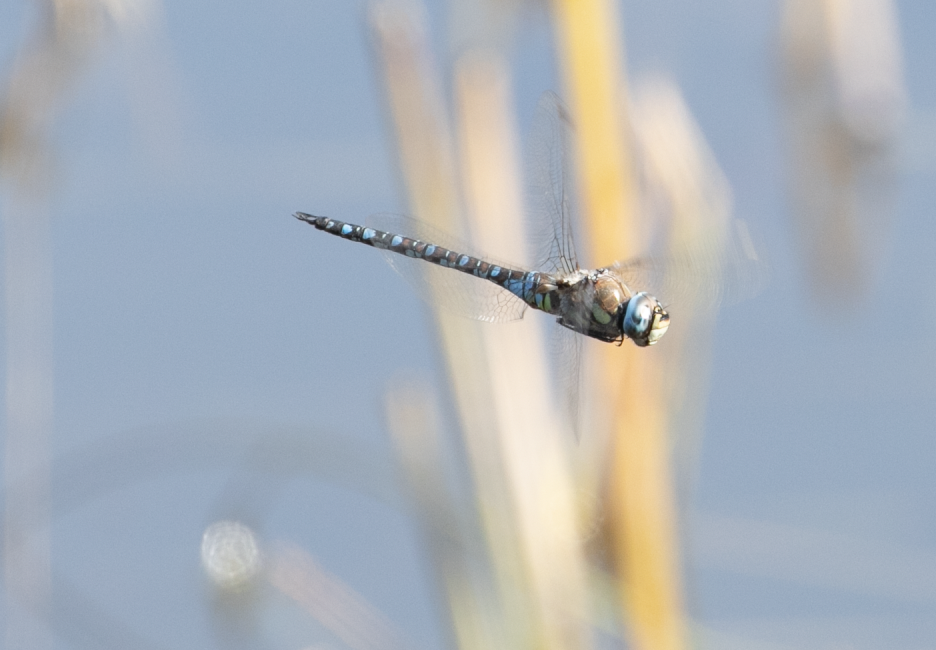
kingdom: Animalia
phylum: Arthropoda
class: Insecta
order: Odonata
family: Aeshnidae
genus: Aeshna
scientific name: Aeshna mixta
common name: Migrant hawker
